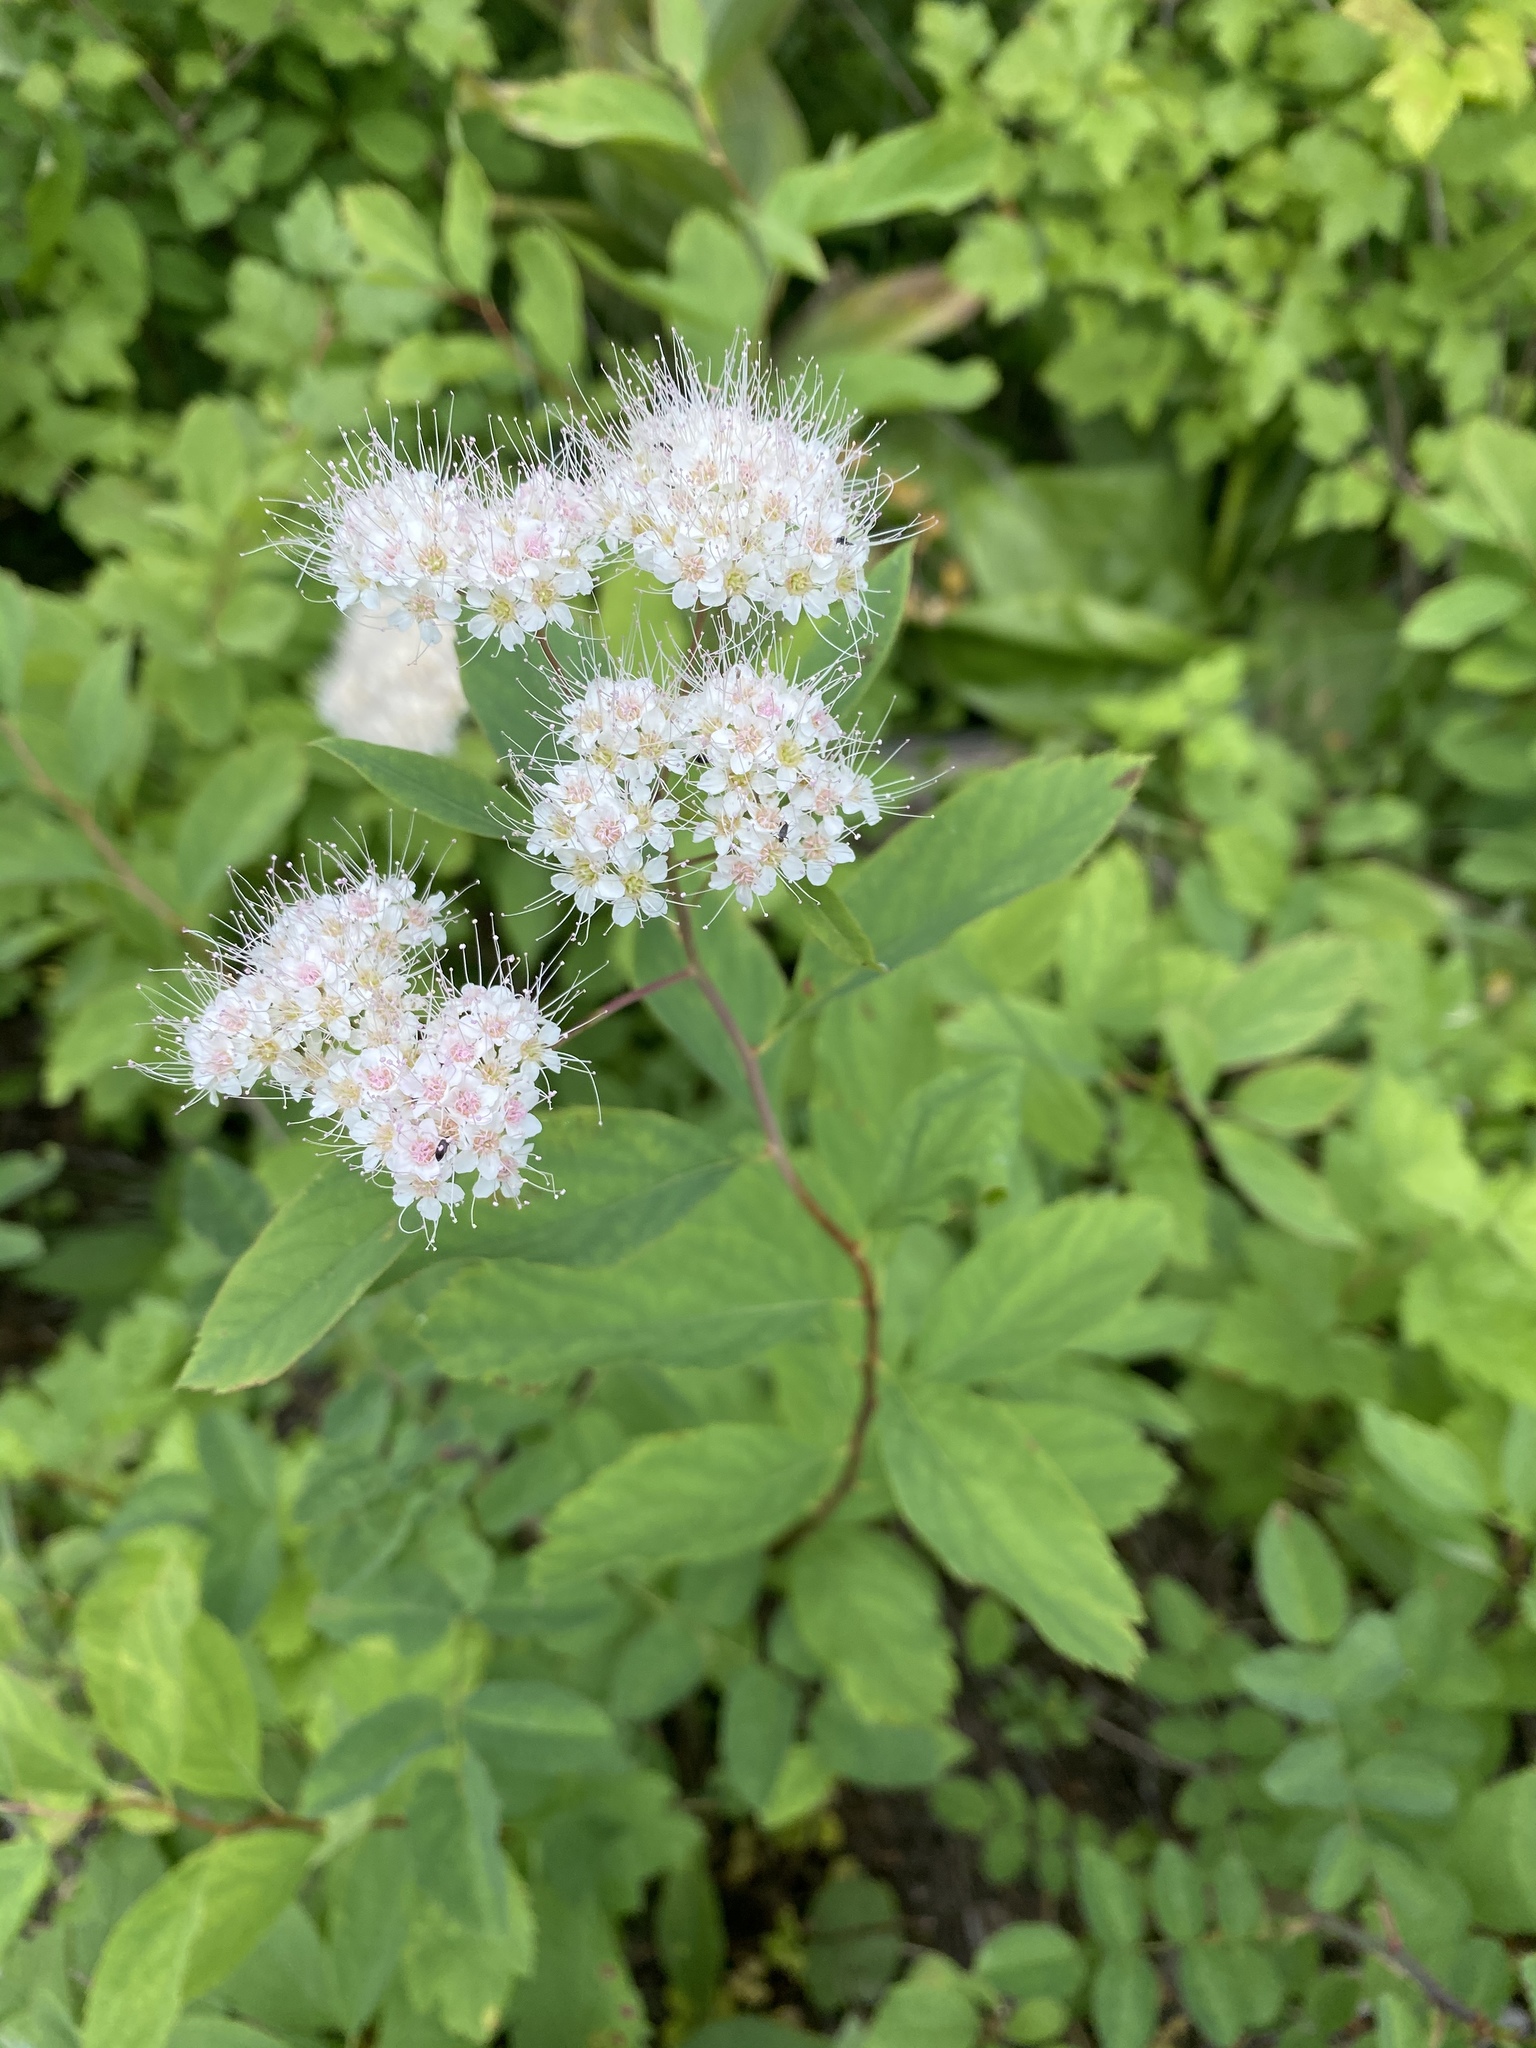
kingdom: Plantae
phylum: Tracheophyta
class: Magnoliopsida
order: Rosales
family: Rosaceae
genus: Spiraea
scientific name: Spiraea lucida
